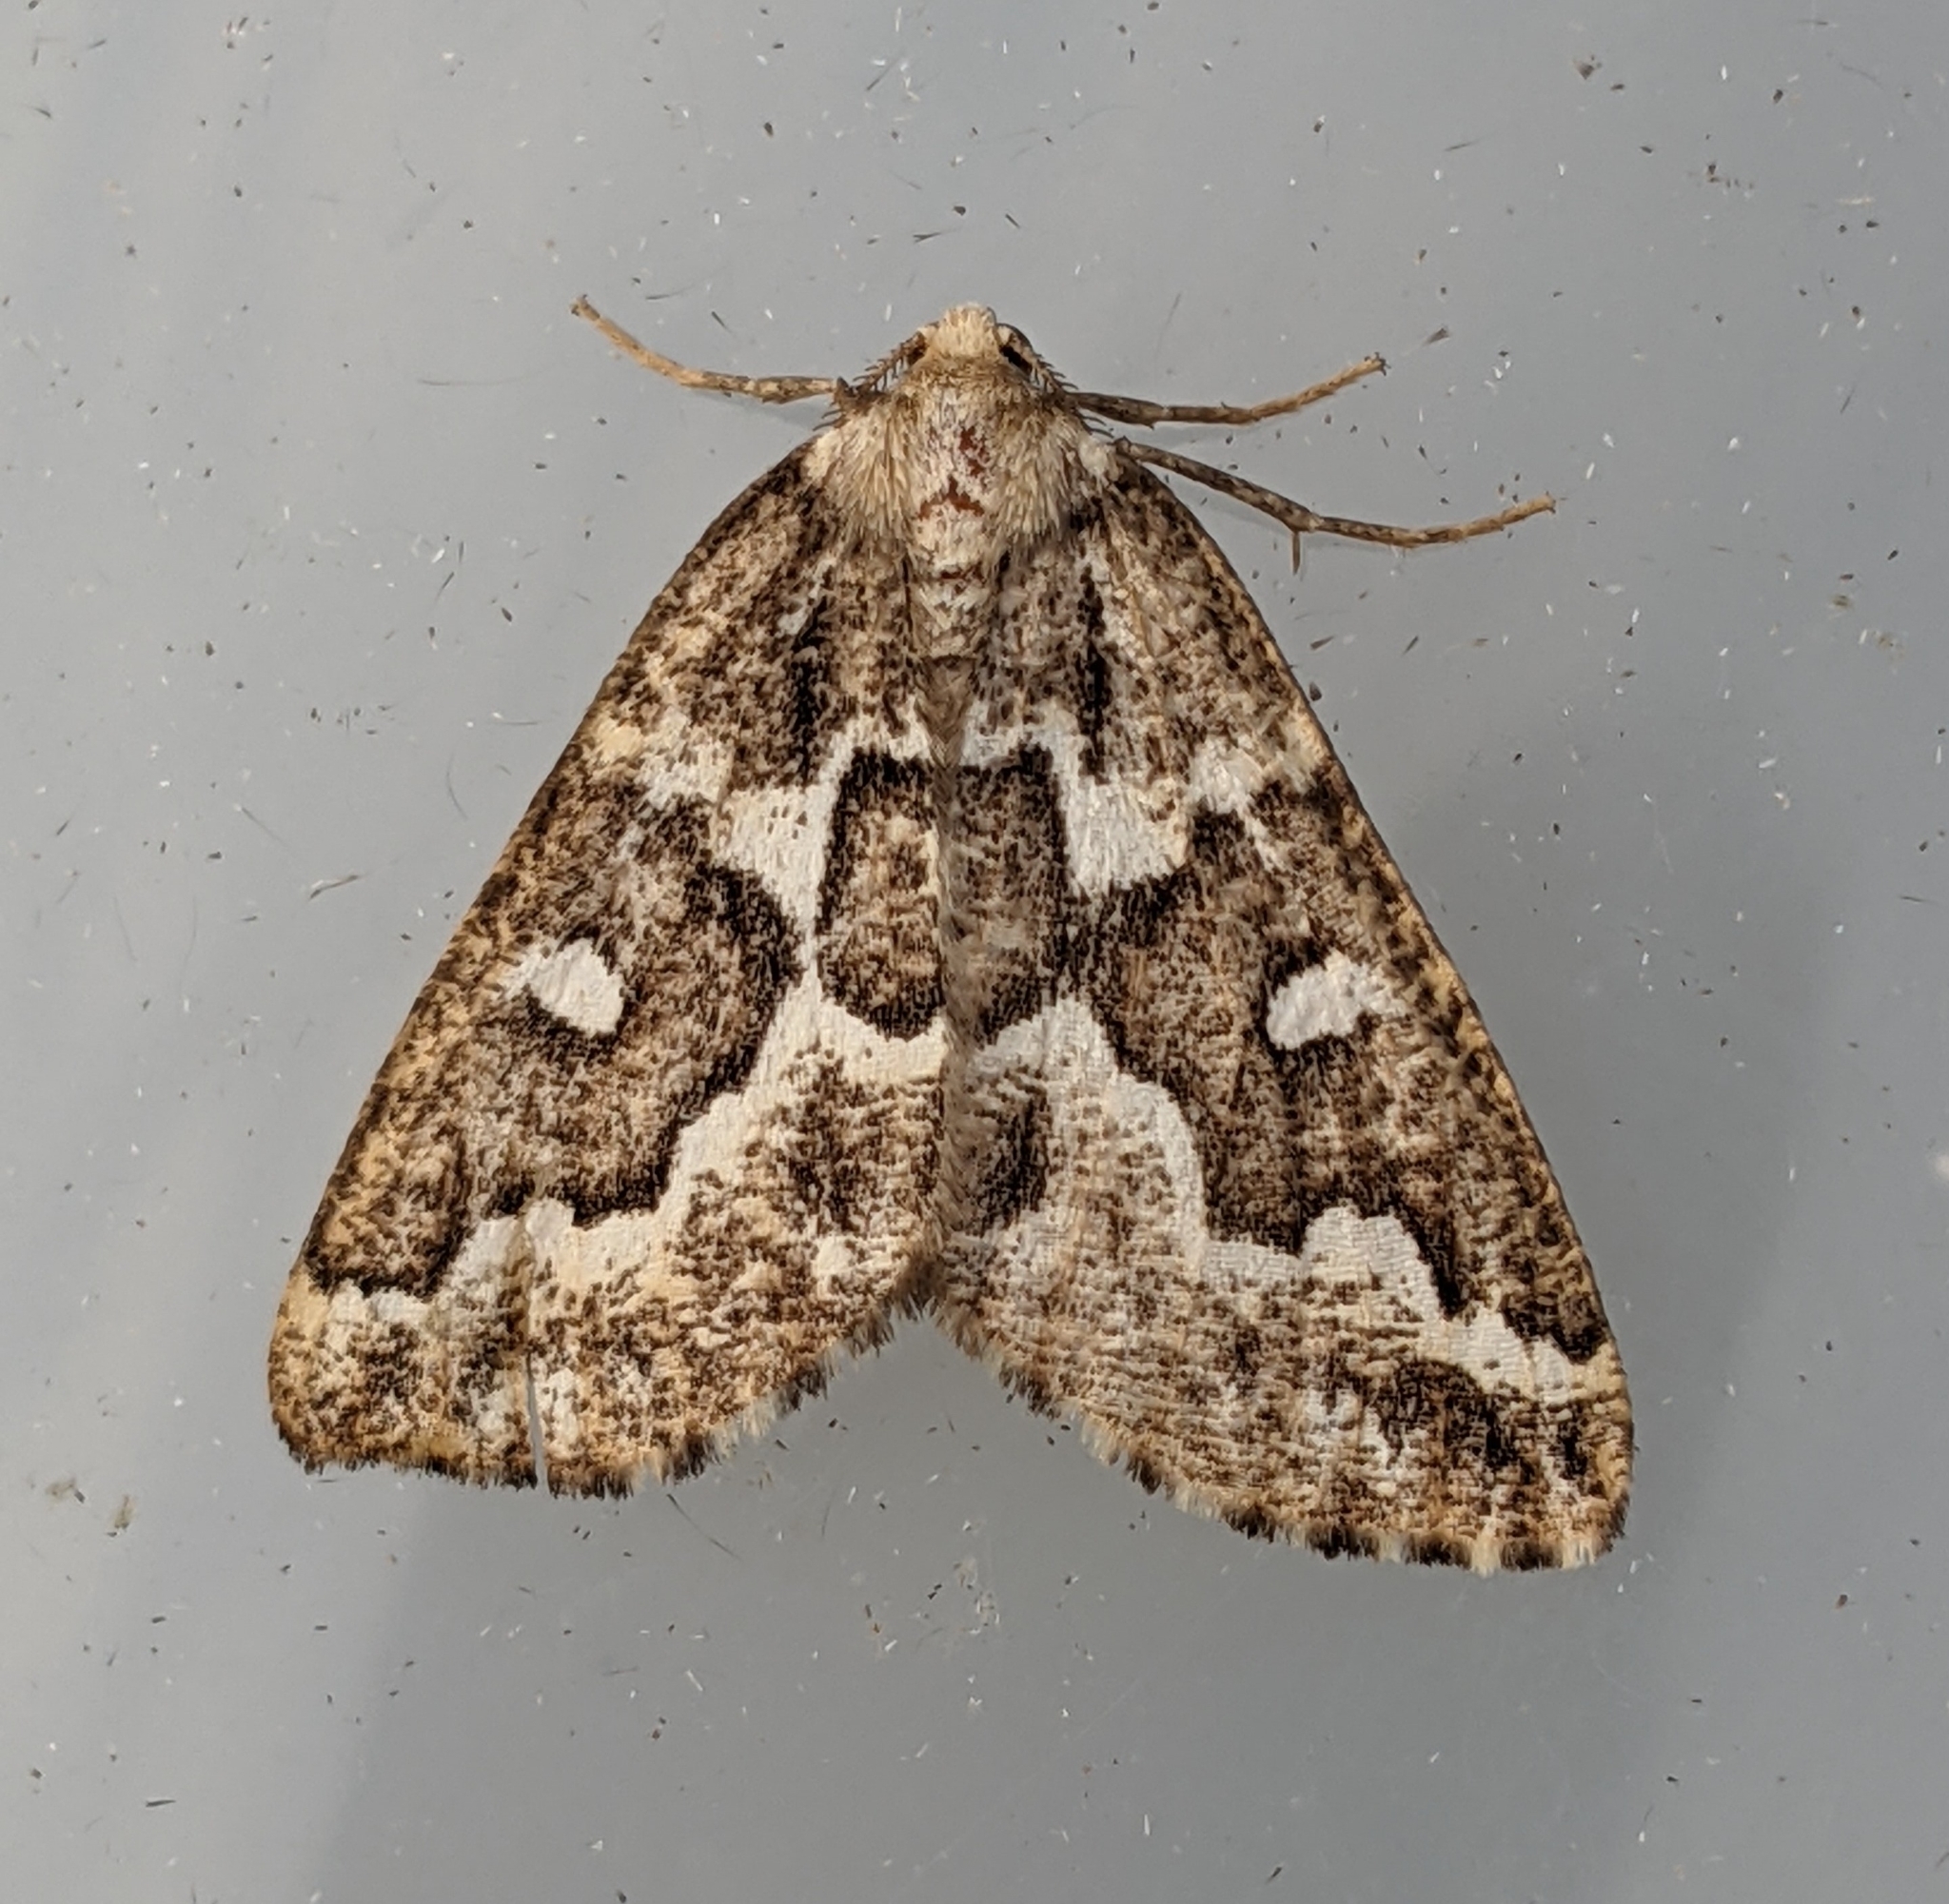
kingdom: Animalia
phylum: Arthropoda
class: Insecta
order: Lepidoptera
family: Geometridae
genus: Caripeta
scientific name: Caripeta divisata
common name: Gray spruce looper
